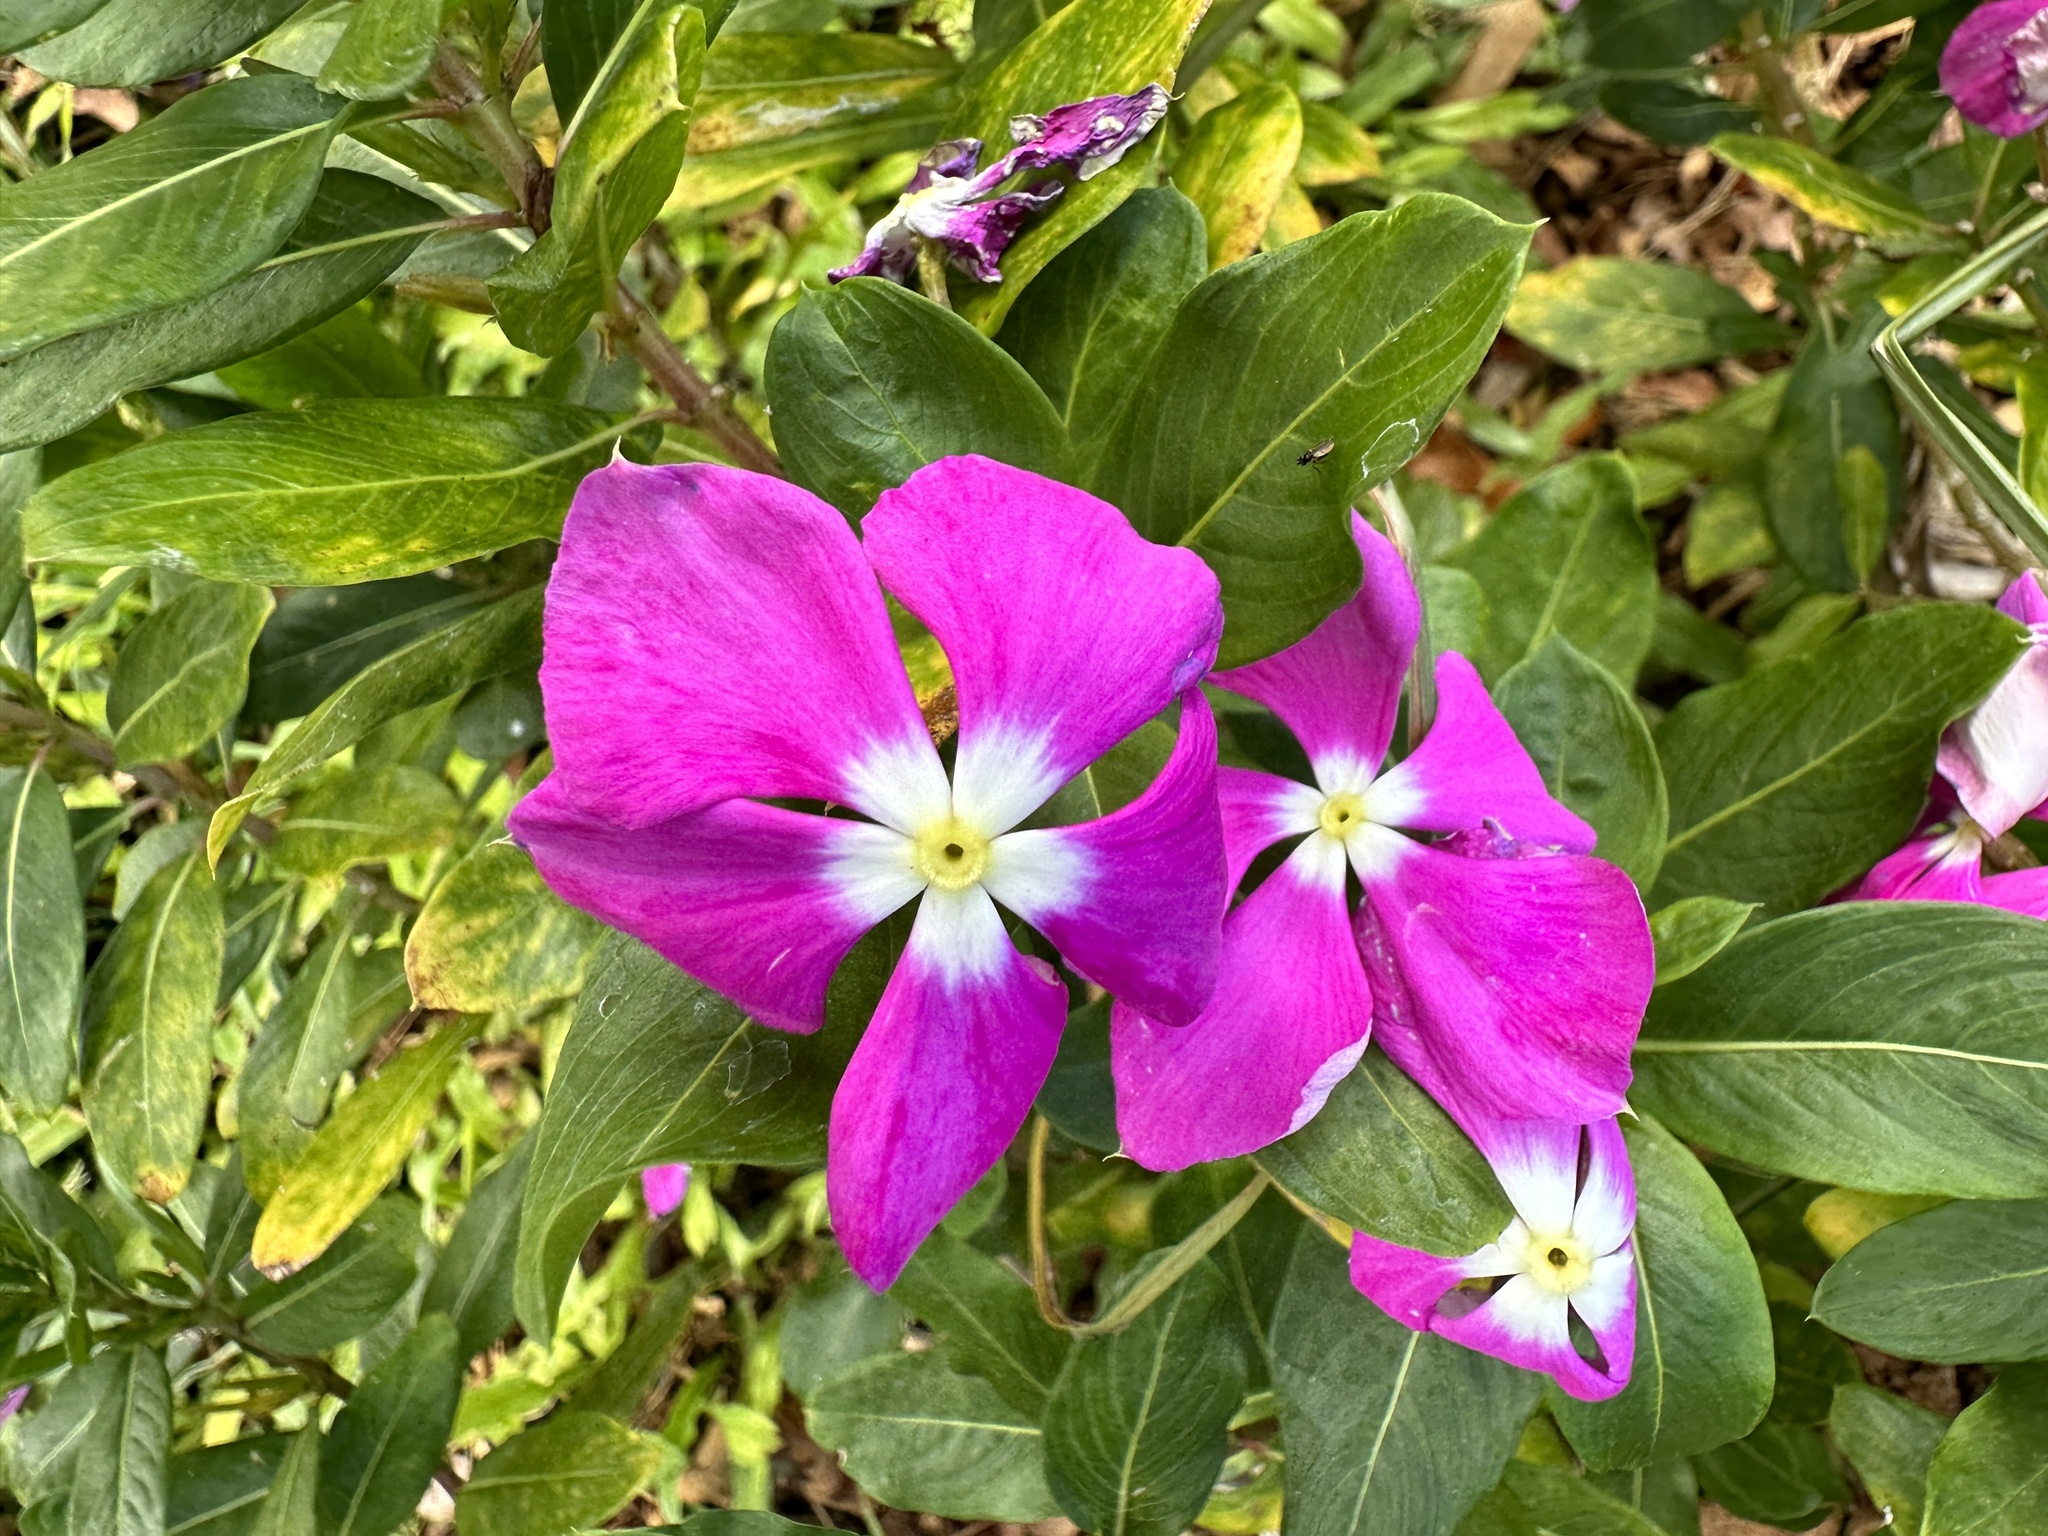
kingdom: Plantae
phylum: Tracheophyta
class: Magnoliopsida
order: Gentianales
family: Apocynaceae
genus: Catharanthus
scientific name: Catharanthus roseus
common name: Madagascar periwinkle
